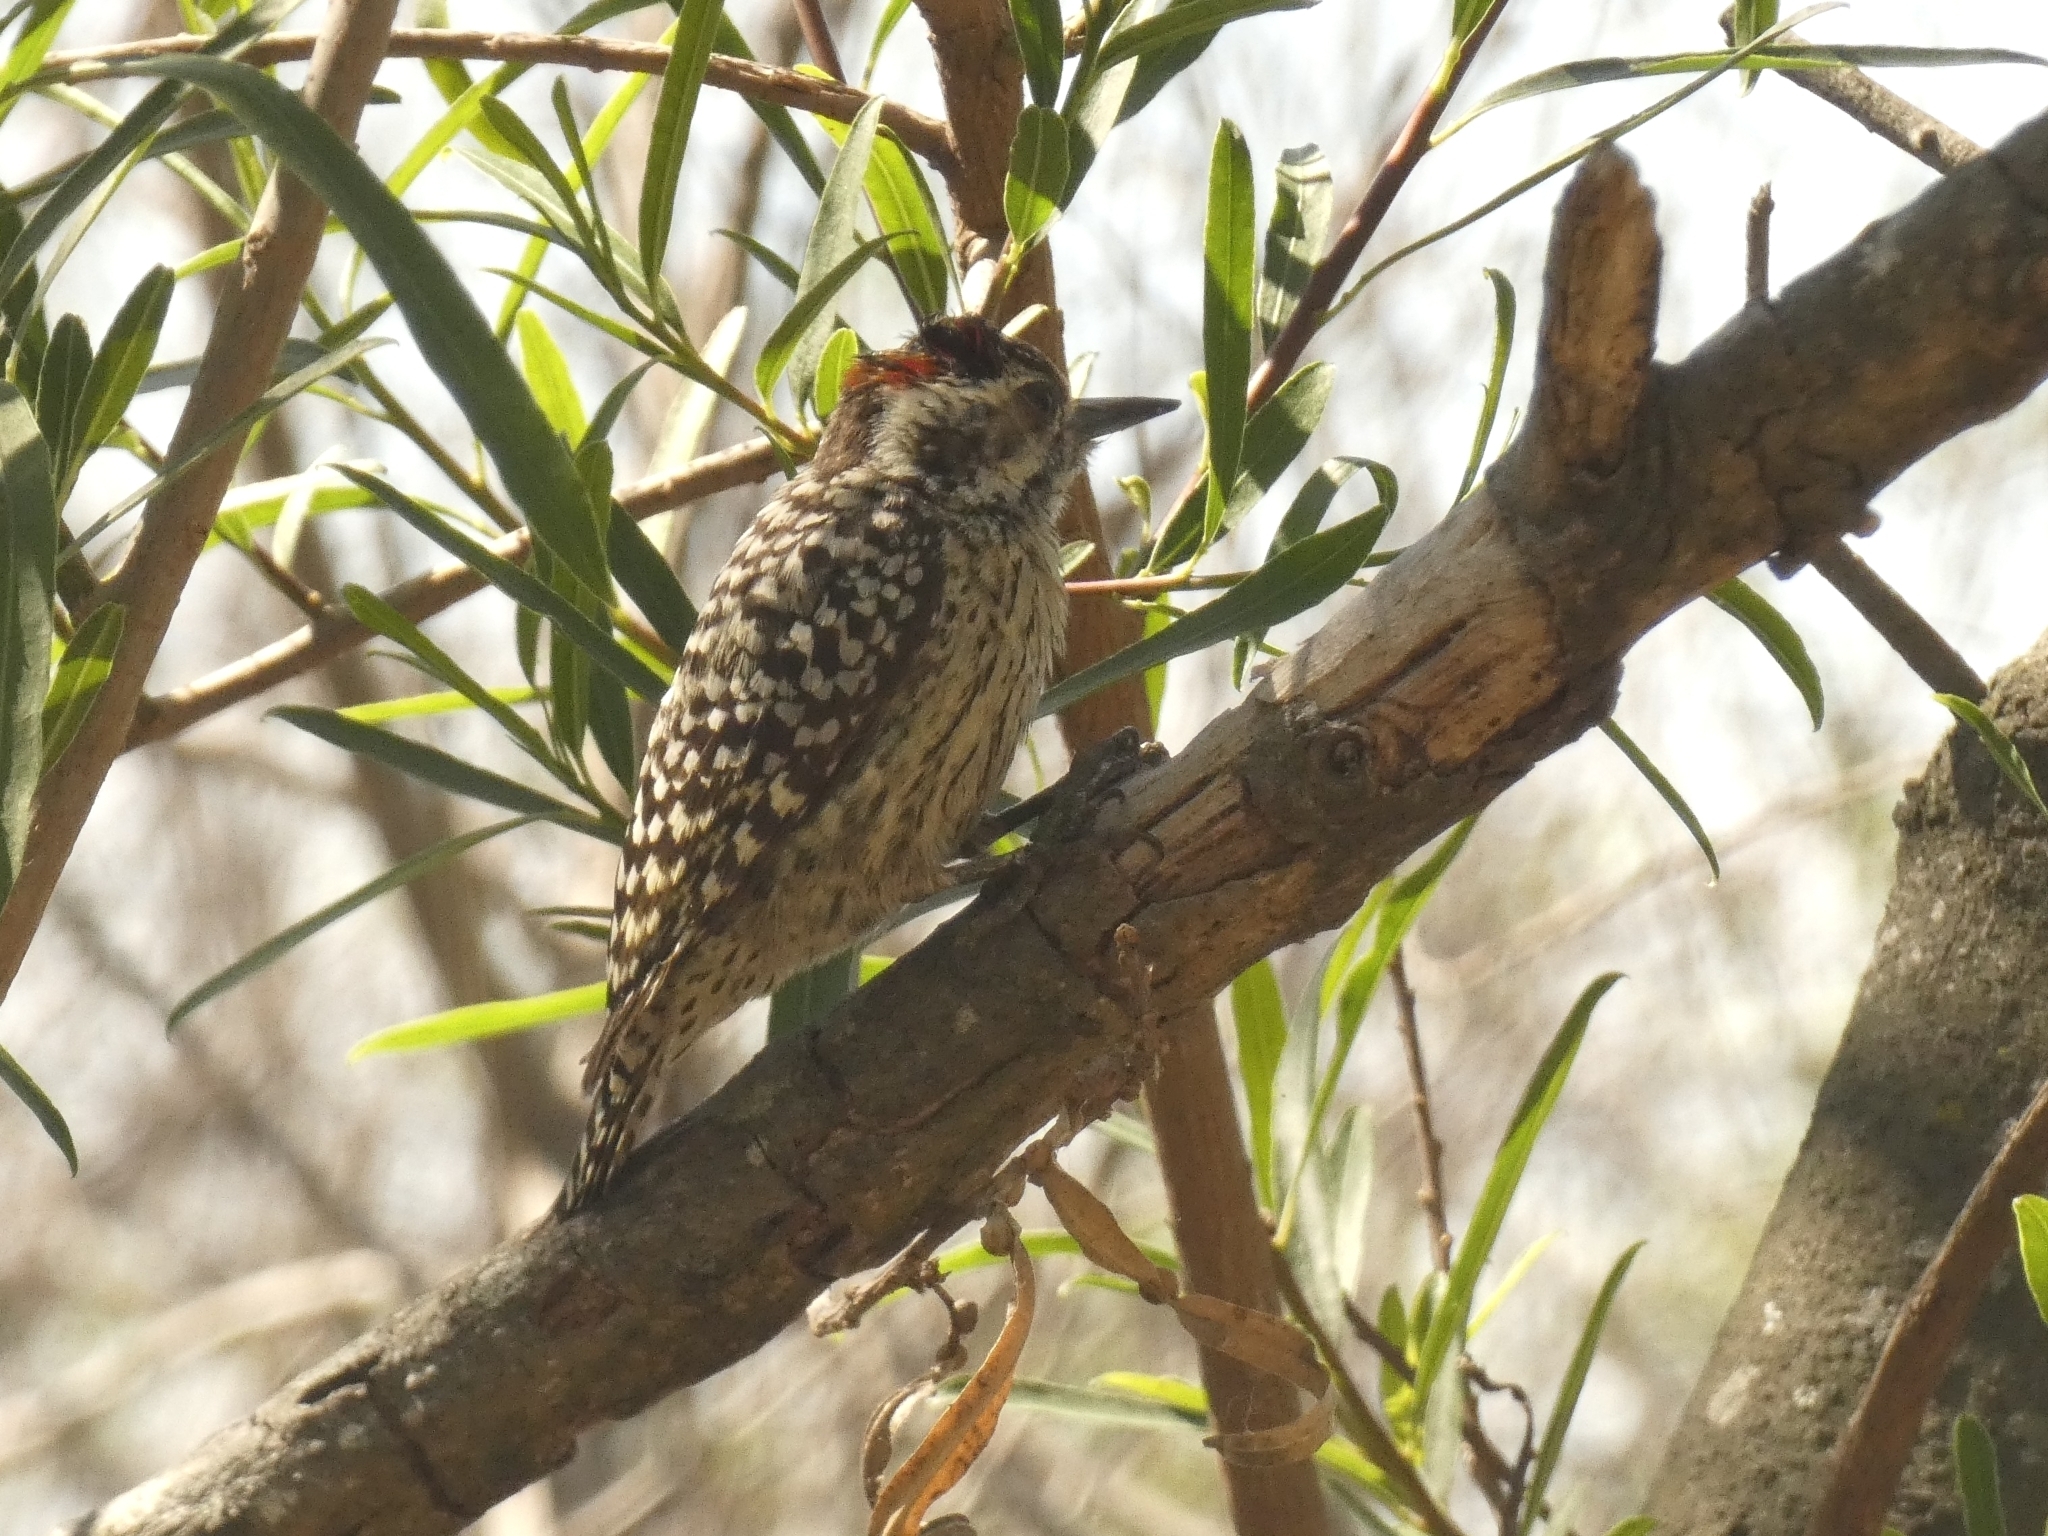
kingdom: Animalia
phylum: Chordata
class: Aves
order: Piciformes
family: Picidae
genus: Veniliornis
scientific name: Veniliornis mixtus
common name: Checkered woodpecker
